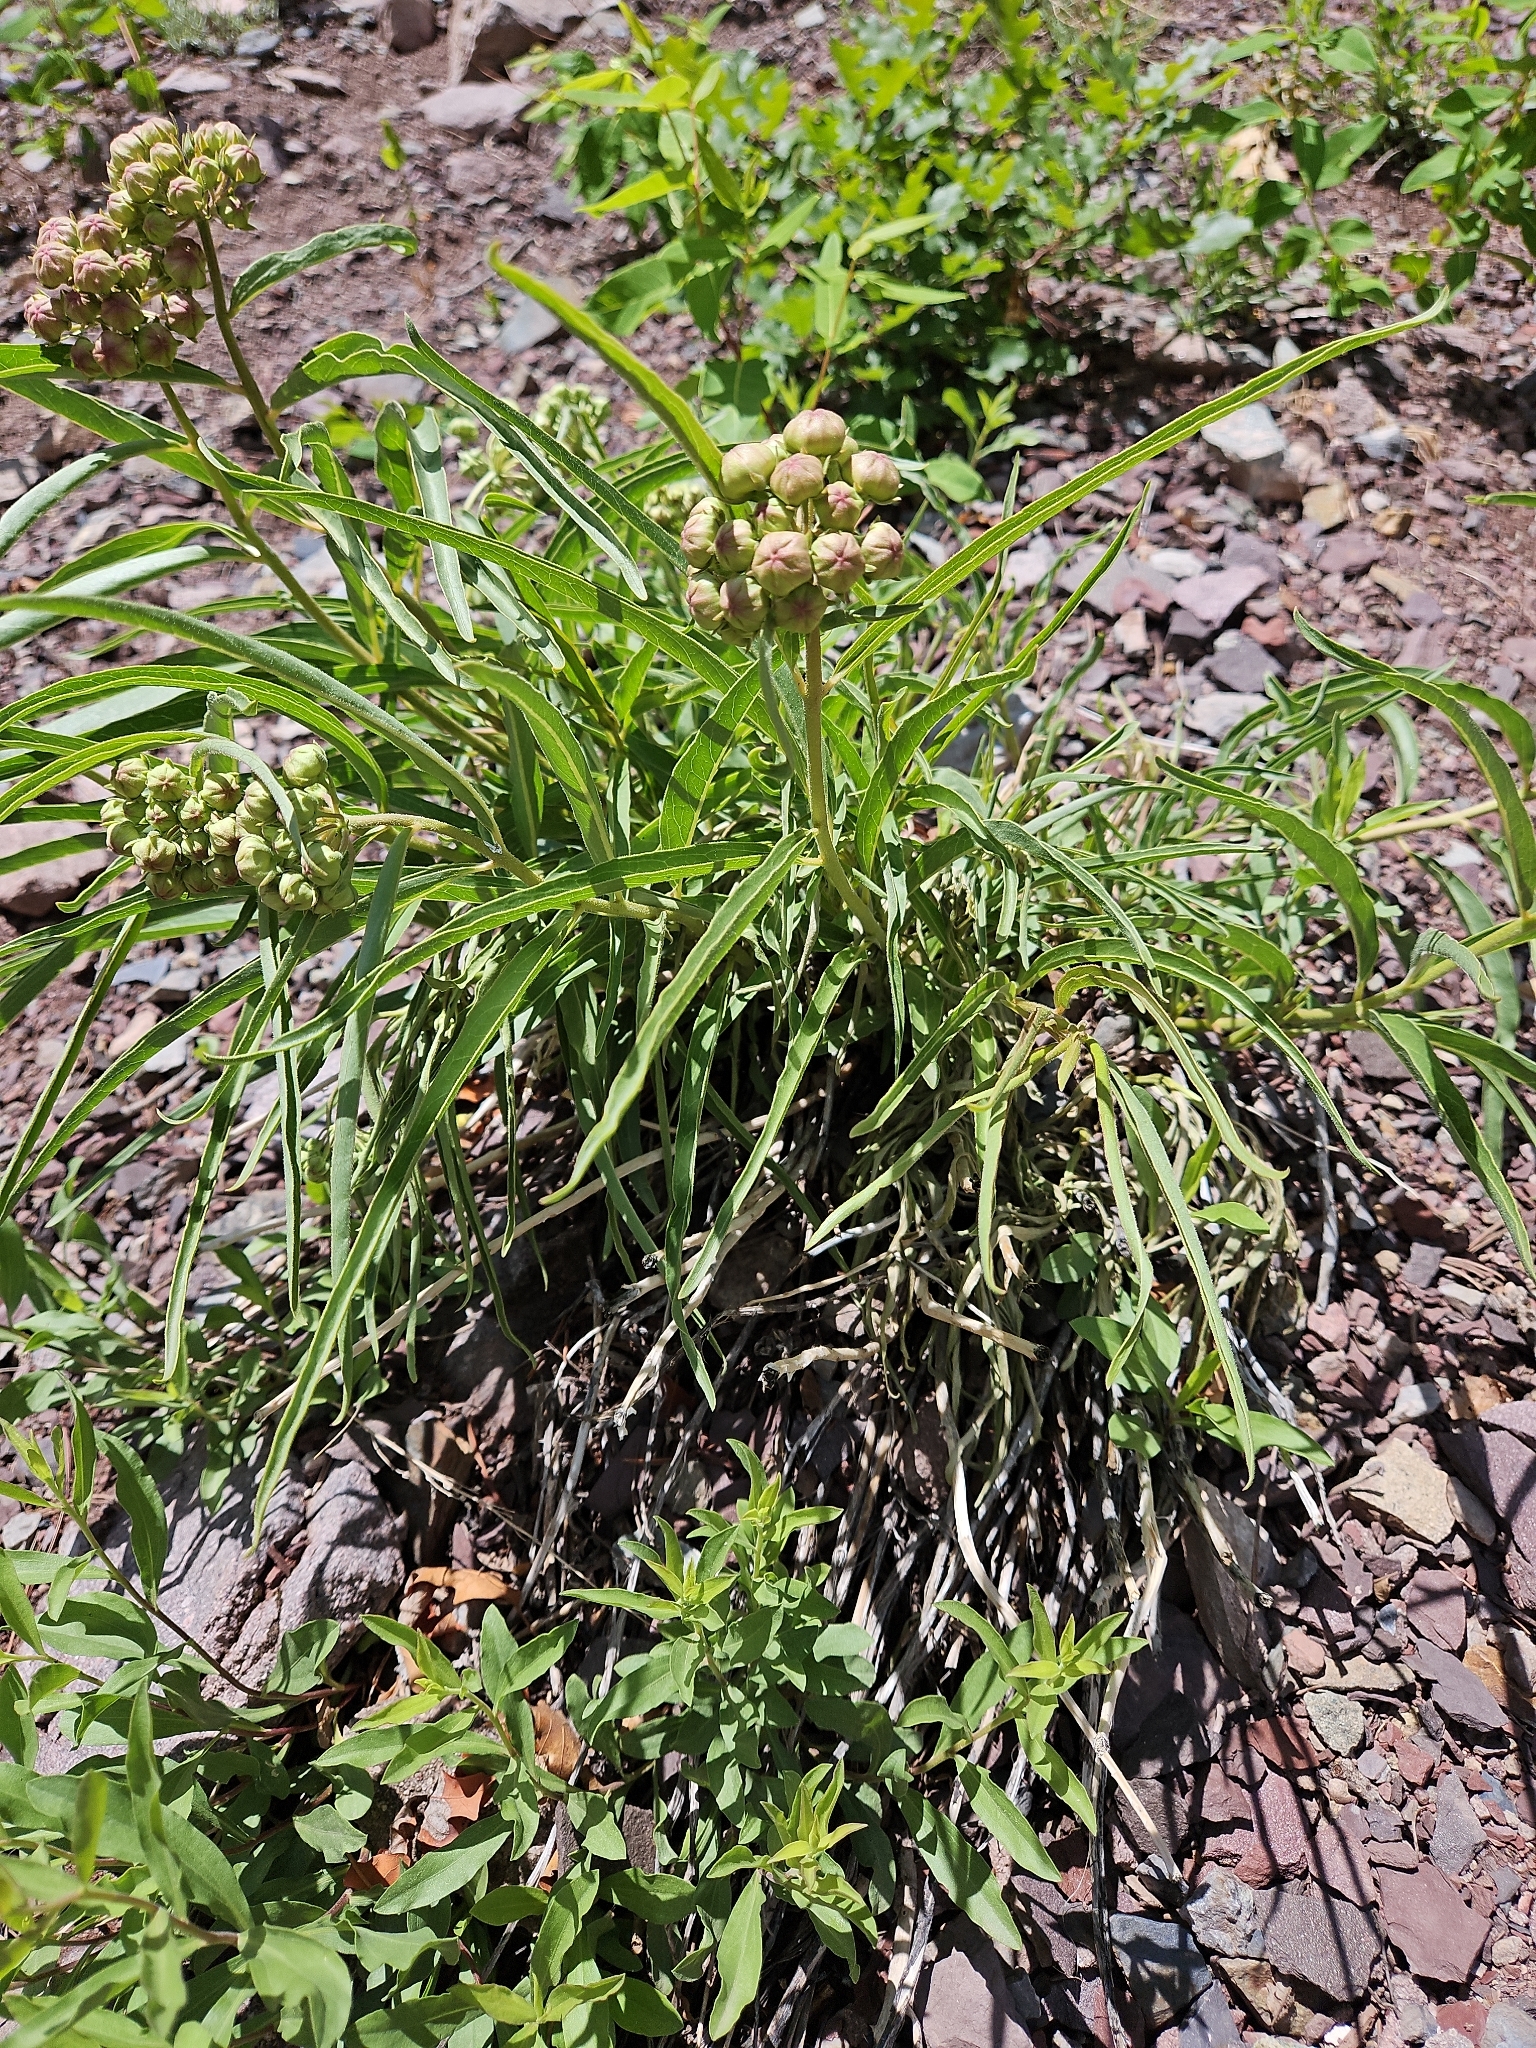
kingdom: Plantae
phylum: Tracheophyta
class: Magnoliopsida
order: Gentianales
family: Apocynaceae
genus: Asclepias
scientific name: Asclepias asperula
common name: Antelope horns
